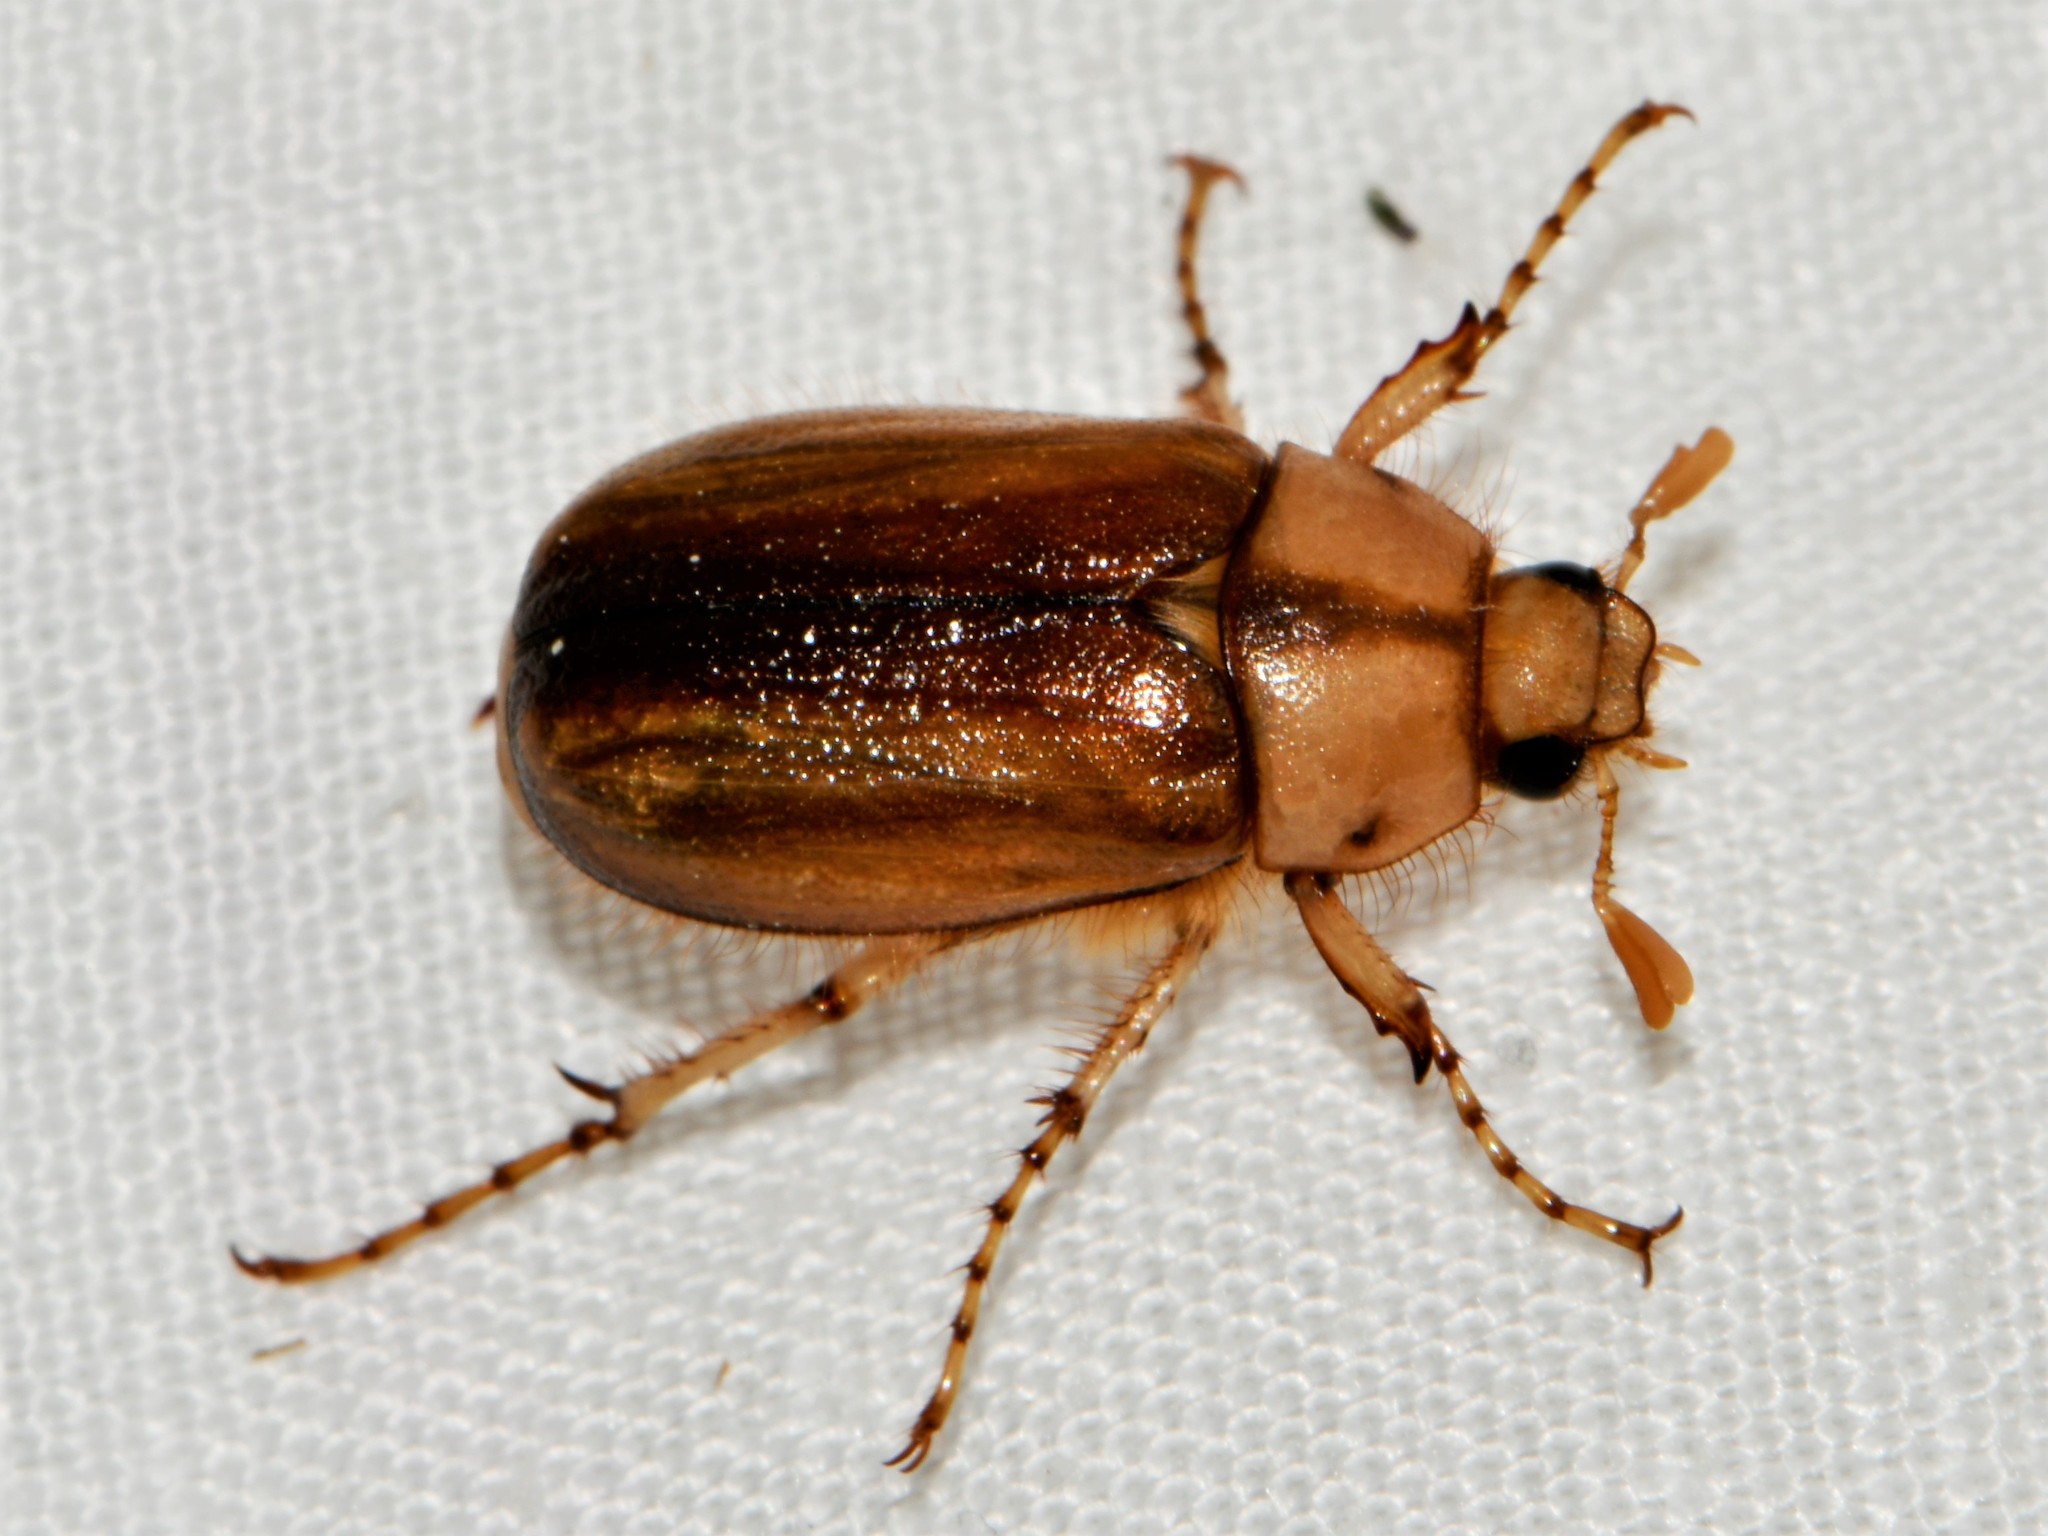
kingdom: Animalia
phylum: Arthropoda
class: Insecta
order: Coleoptera
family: Scarabaeidae
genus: Rhizotrogus
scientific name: Rhizotrogus aestivus
